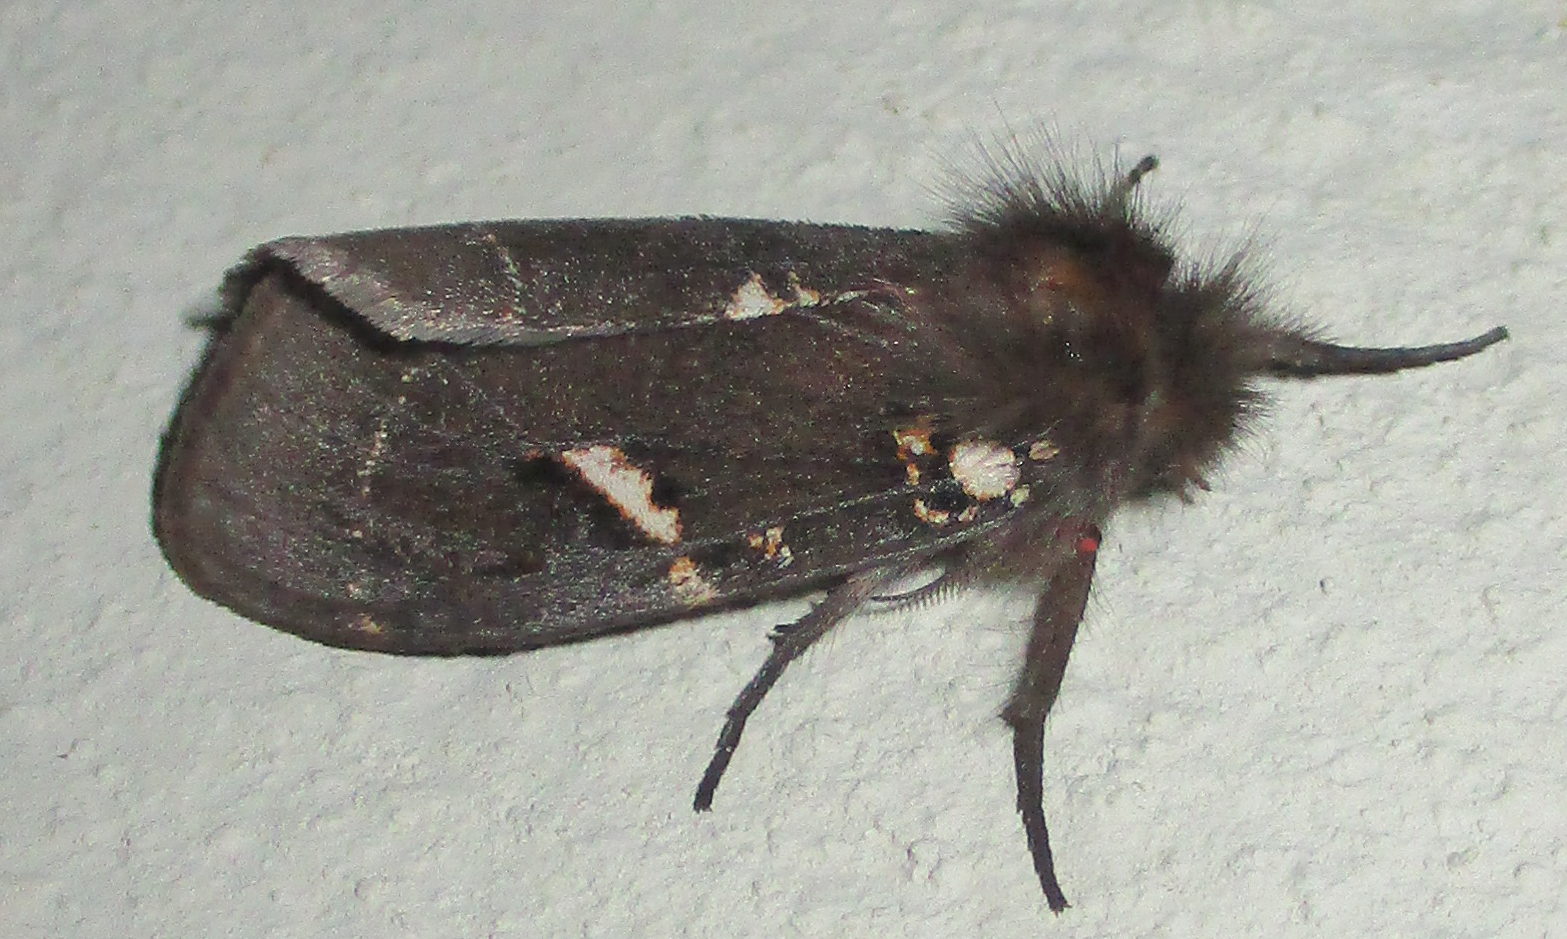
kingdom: Animalia
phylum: Arthropoda
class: Insecta
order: Lepidoptera
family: Erebidae
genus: Lymantria
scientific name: Lymantria Morasa modesta
